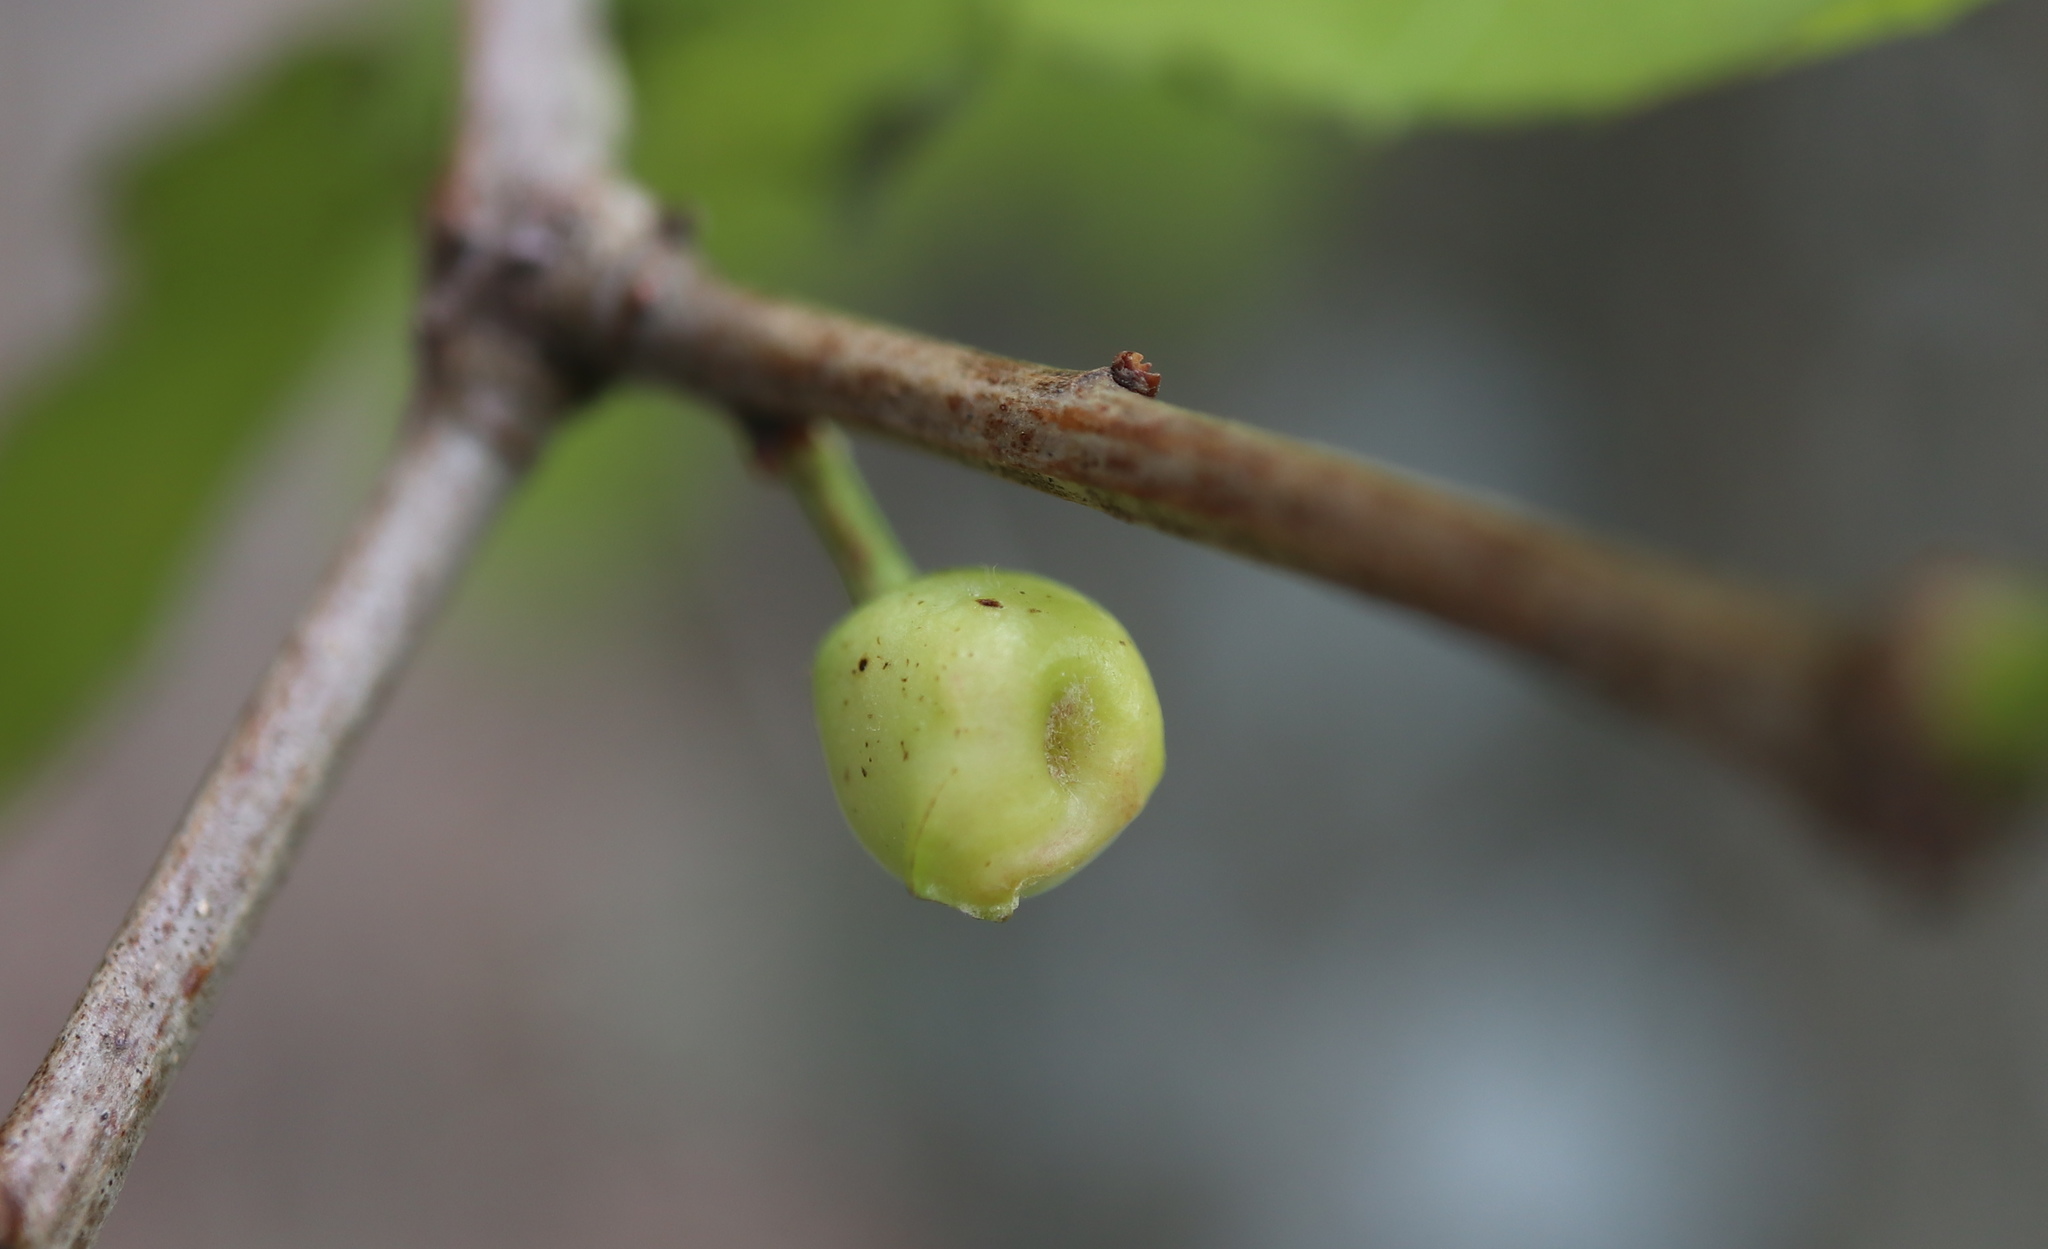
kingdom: Animalia
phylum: Arthropoda
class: Insecta
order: Hymenoptera
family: Cynipidae
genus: Andricus
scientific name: Andricus
